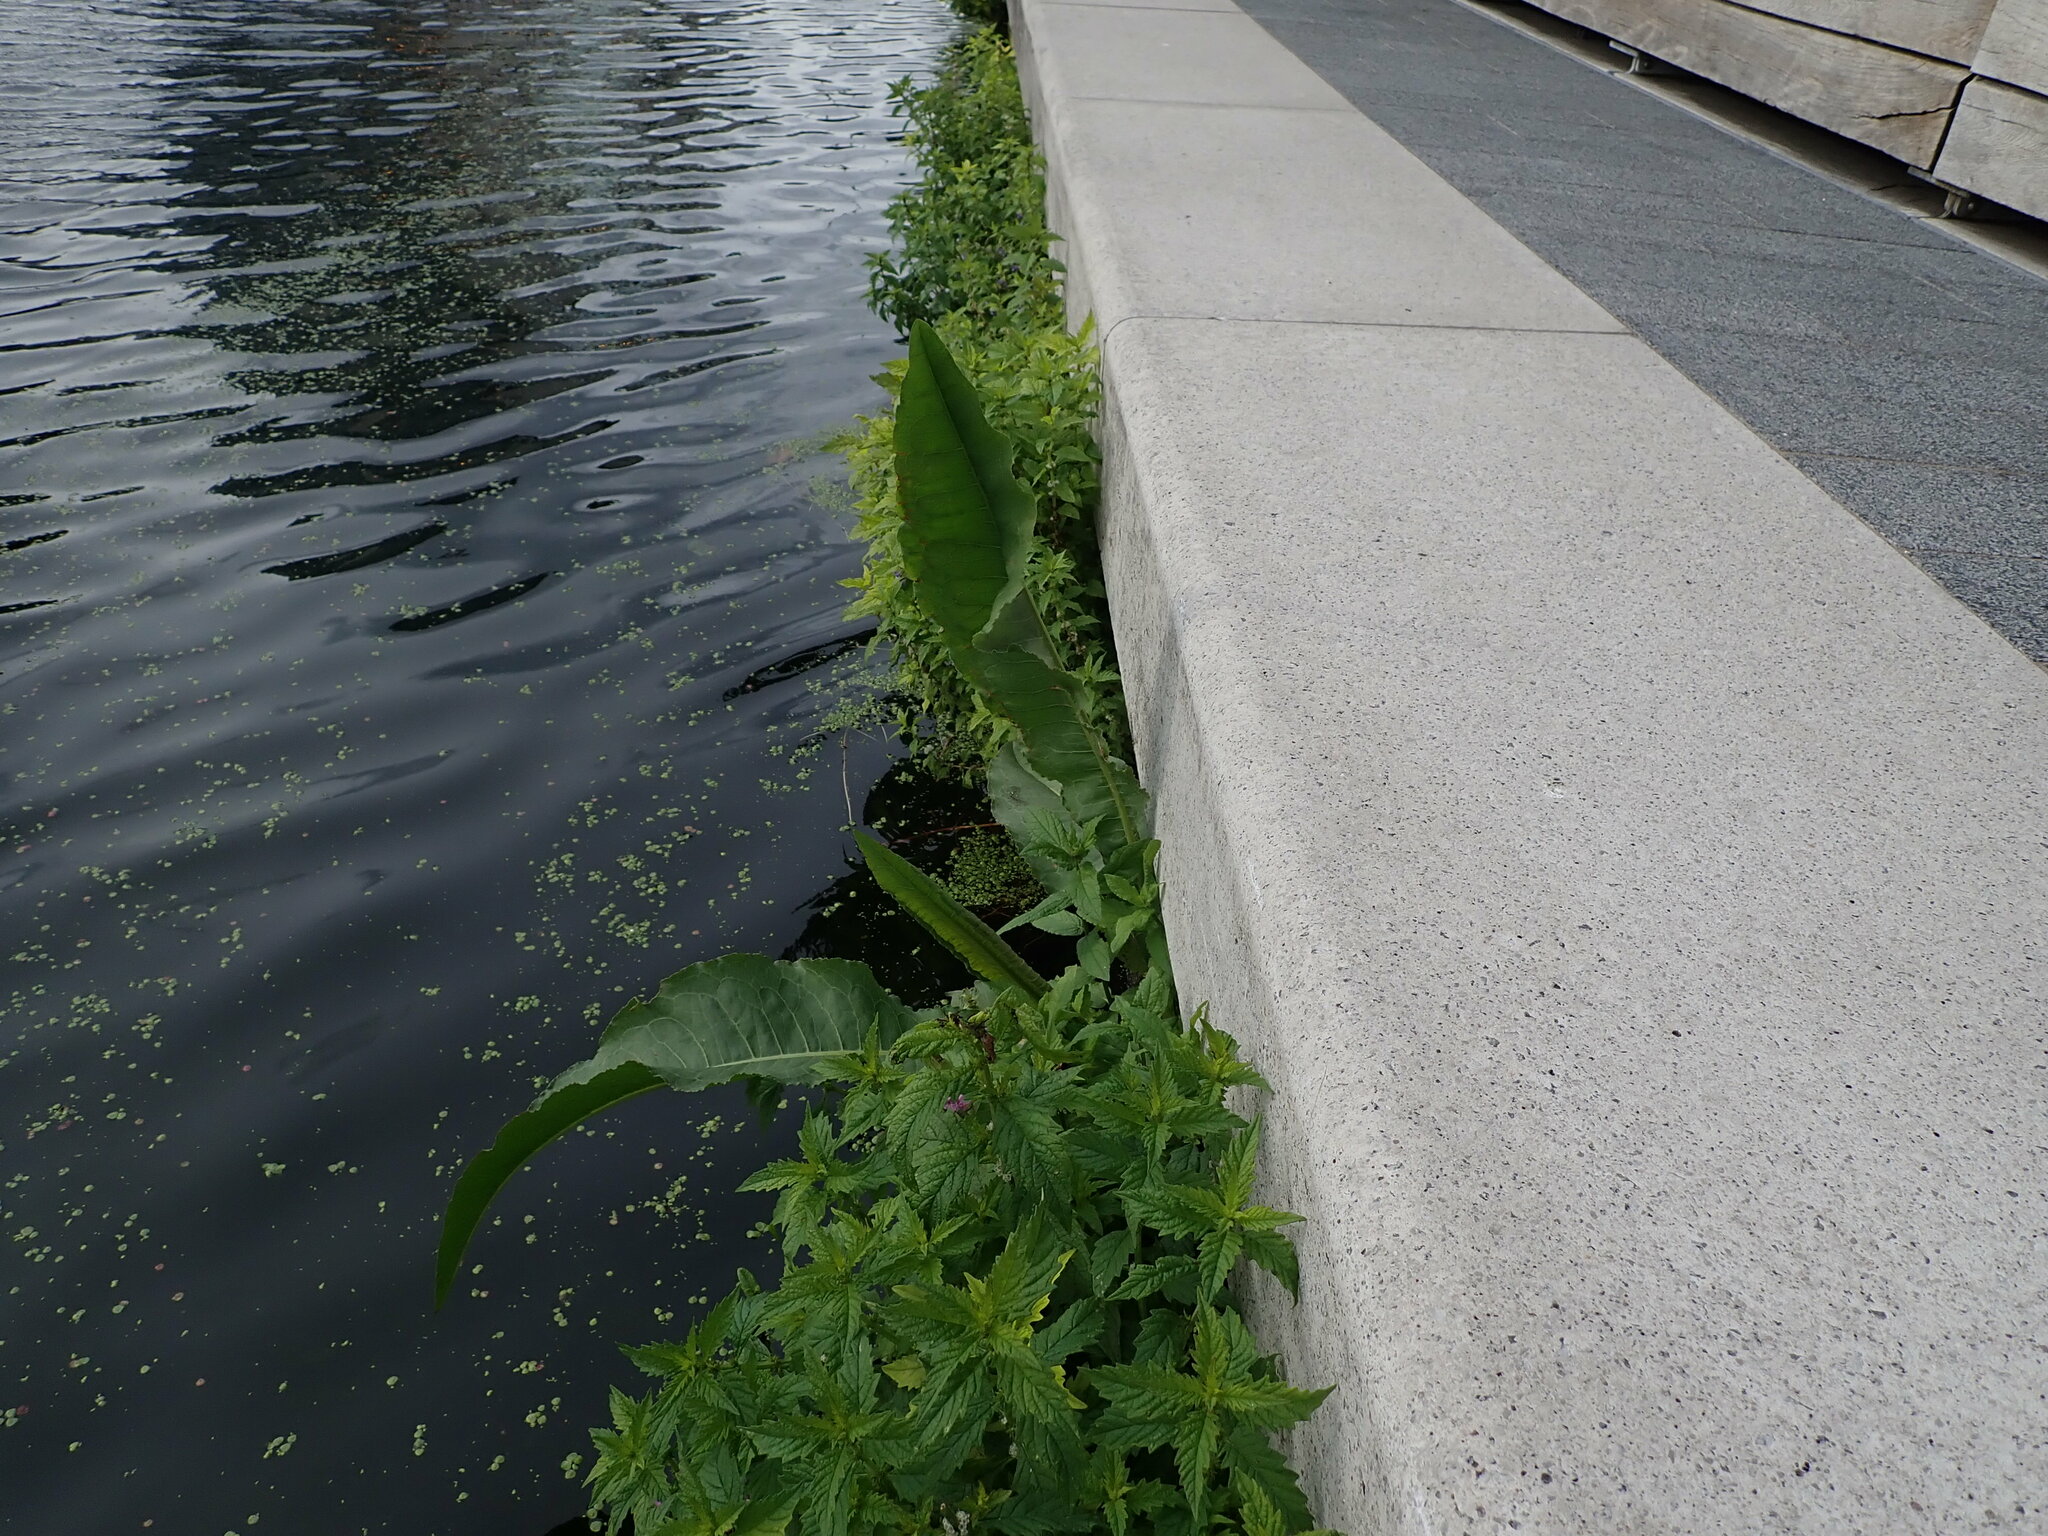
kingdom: Plantae
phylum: Tracheophyta
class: Magnoliopsida
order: Caryophyllales
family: Polygonaceae
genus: Rumex
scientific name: Rumex hydrolapathum
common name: Water dock
